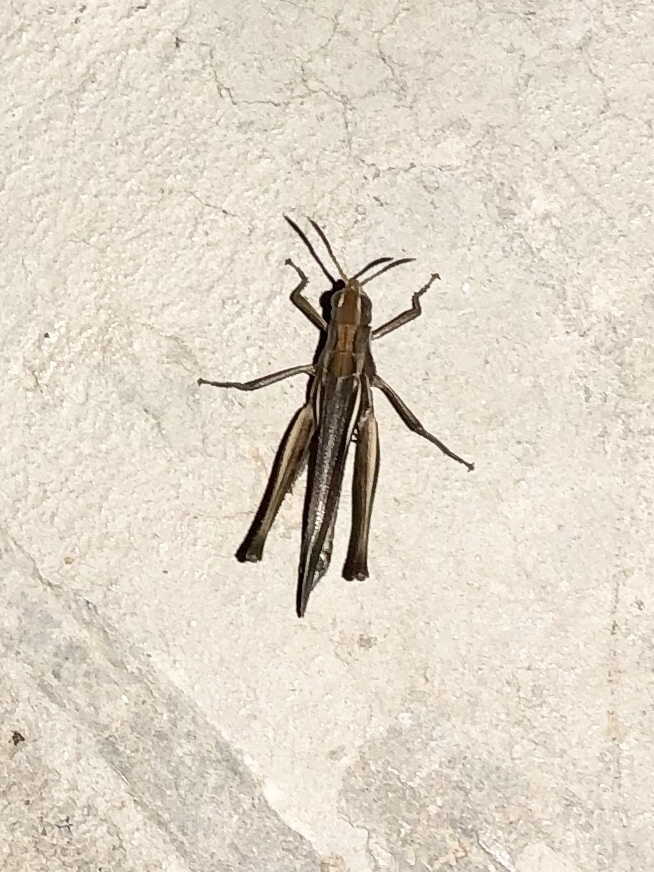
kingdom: Animalia
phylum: Arthropoda
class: Insecta
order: Orthoptera
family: Acrididae
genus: Syrbula
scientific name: Syrbula montezuma
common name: Montezuma's grasshopper
